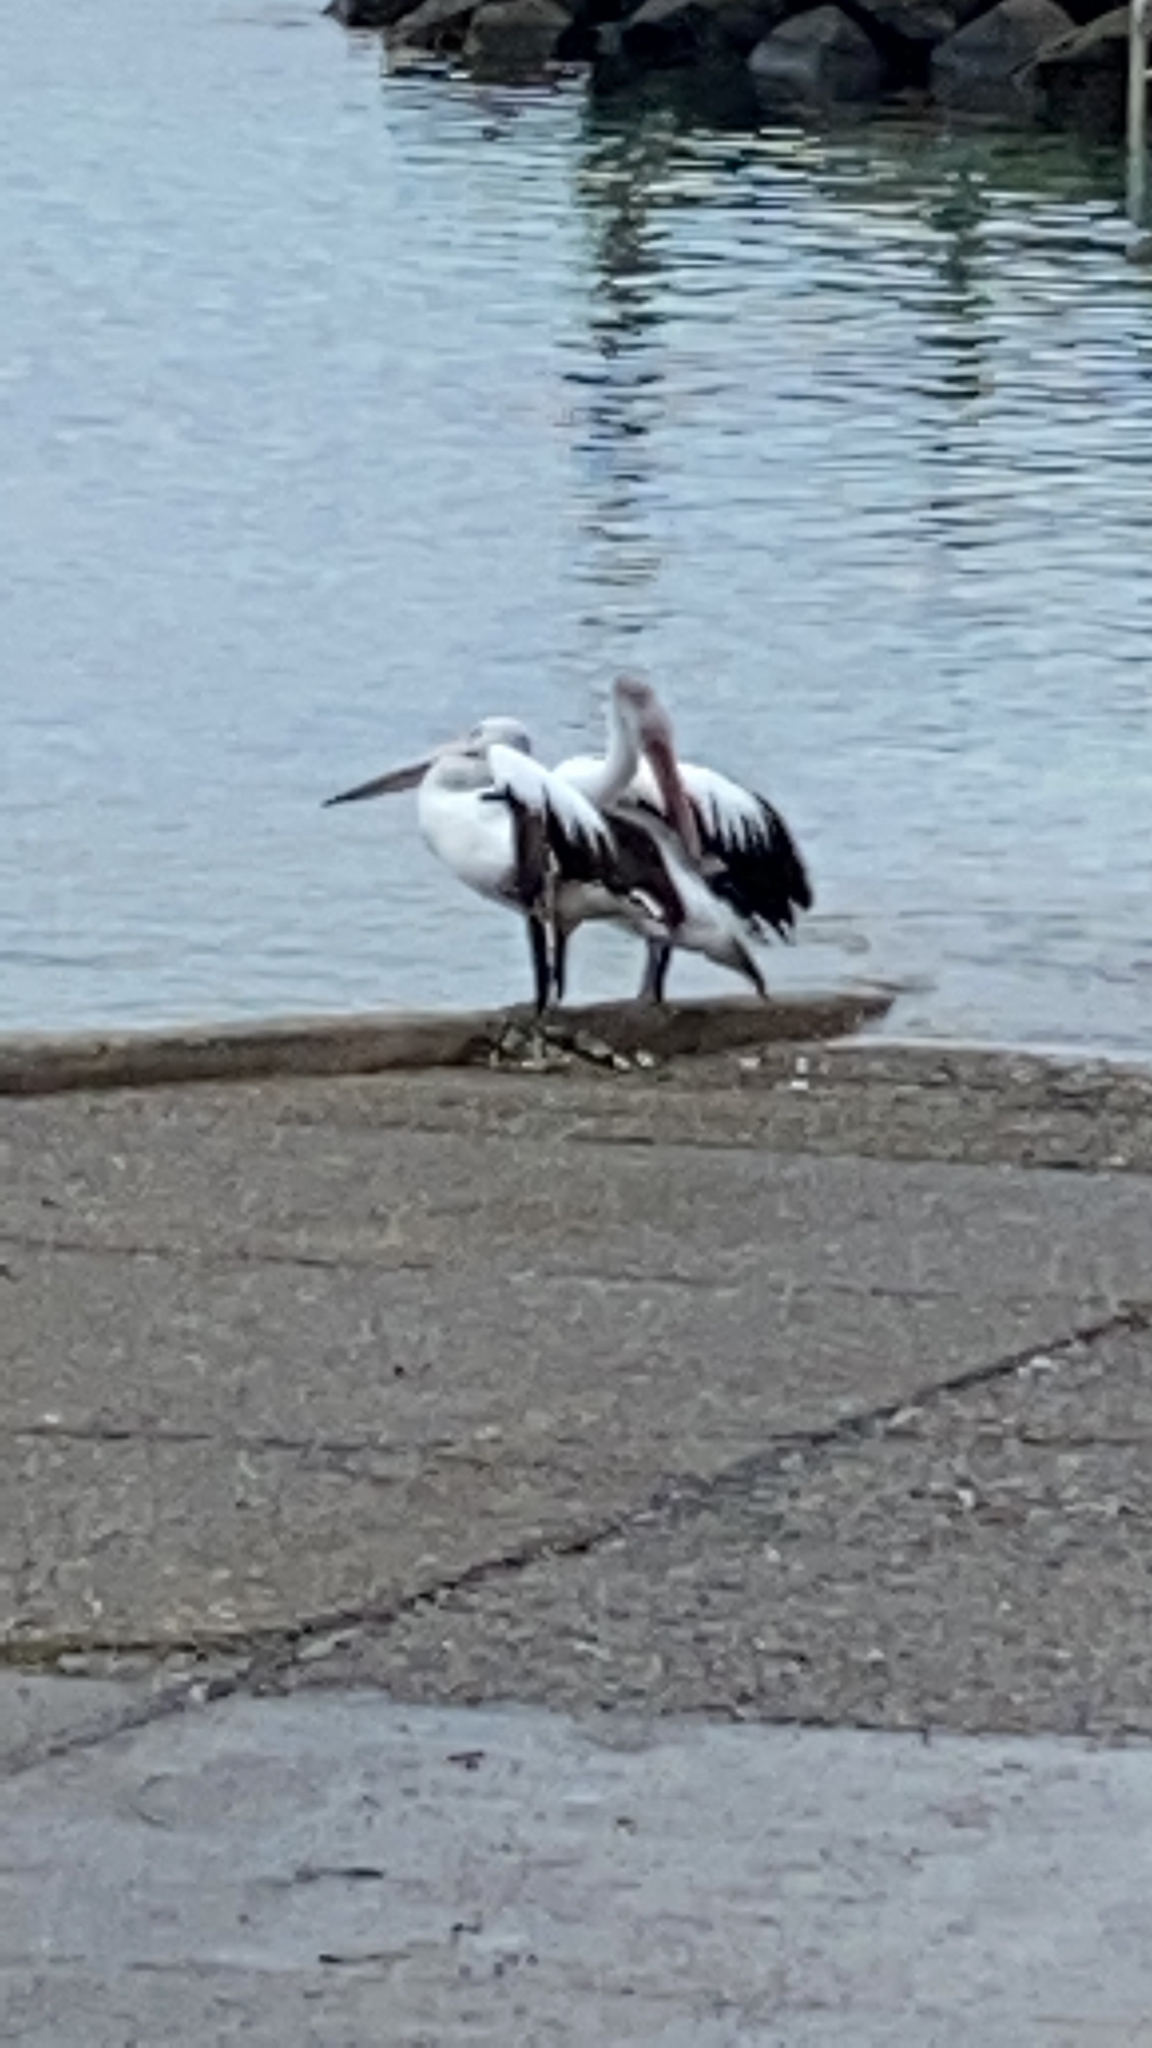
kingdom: Animalia
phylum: Chordata
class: Aves
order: Pelecaniformes
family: Pelecanidae
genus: Pelecanus
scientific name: Pelecanus conspicillatus
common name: Australian pelican
